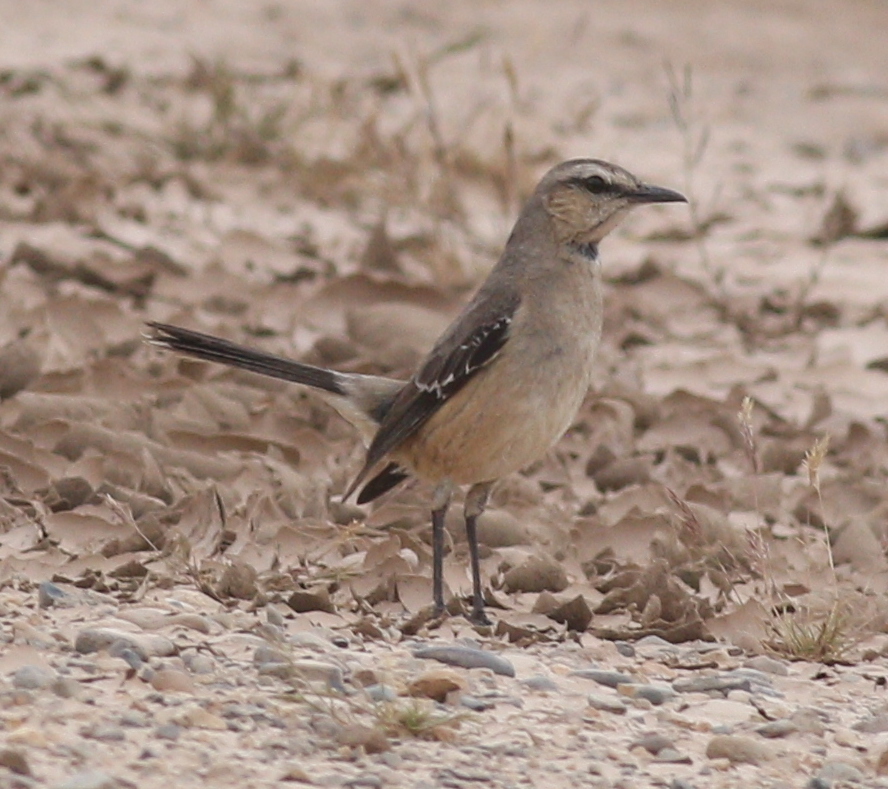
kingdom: Animalia
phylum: Chordata
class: Aves
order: Passeriformes
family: Mimidae
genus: Mimus
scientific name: Mimus patagonicus
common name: Patagonian mockingbird
